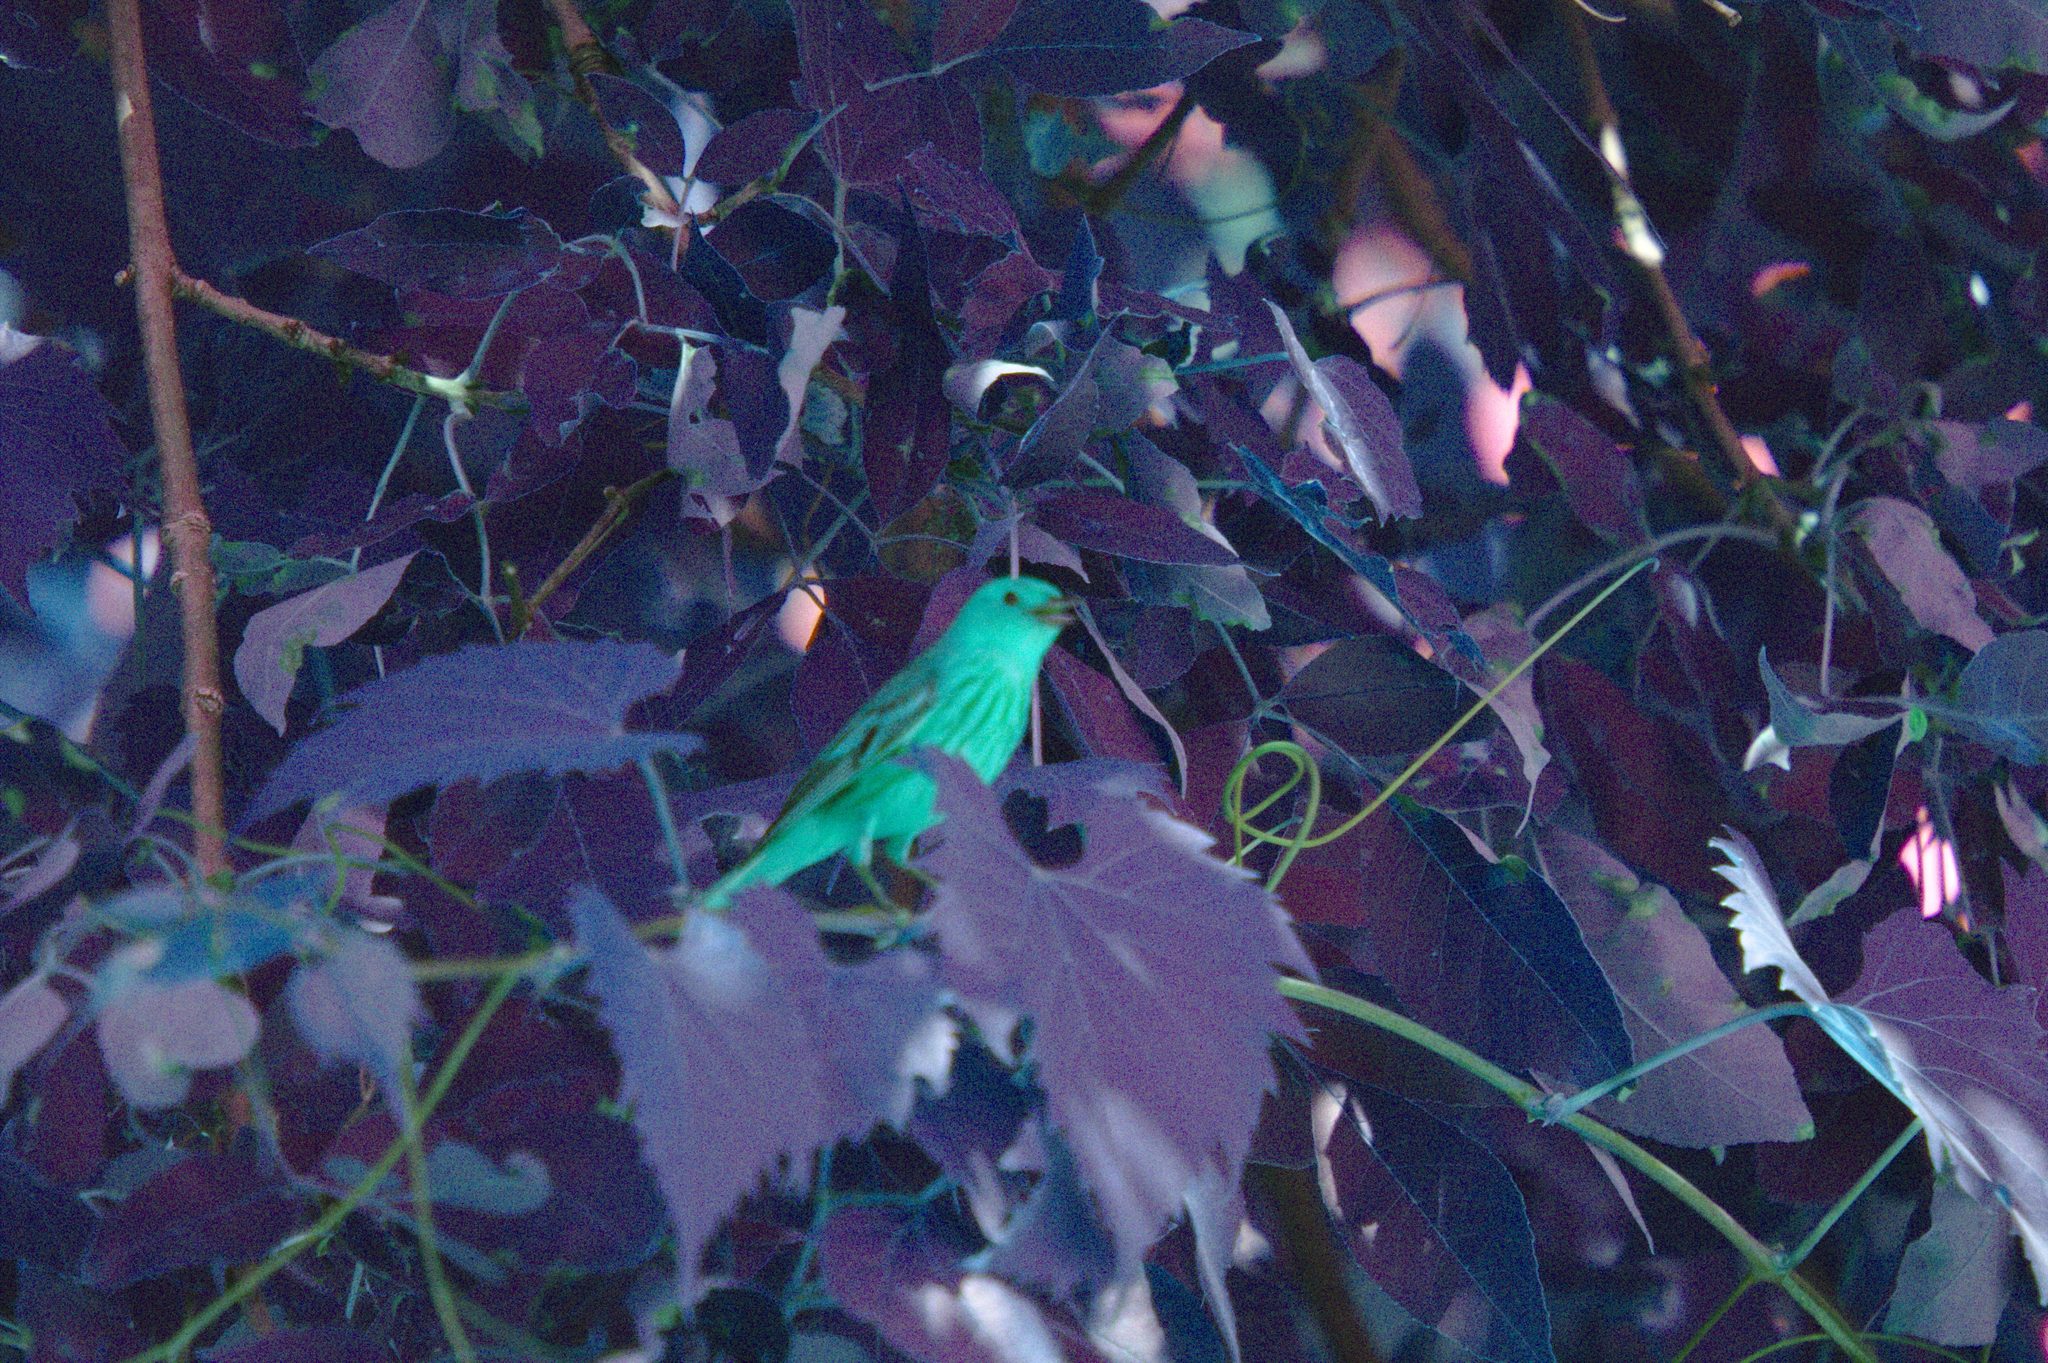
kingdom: Animalia
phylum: Chordata
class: Aves
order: Passeriformes
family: Parulidae
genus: Setophaga
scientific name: Setophaga petechia
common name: Yellow warbler
